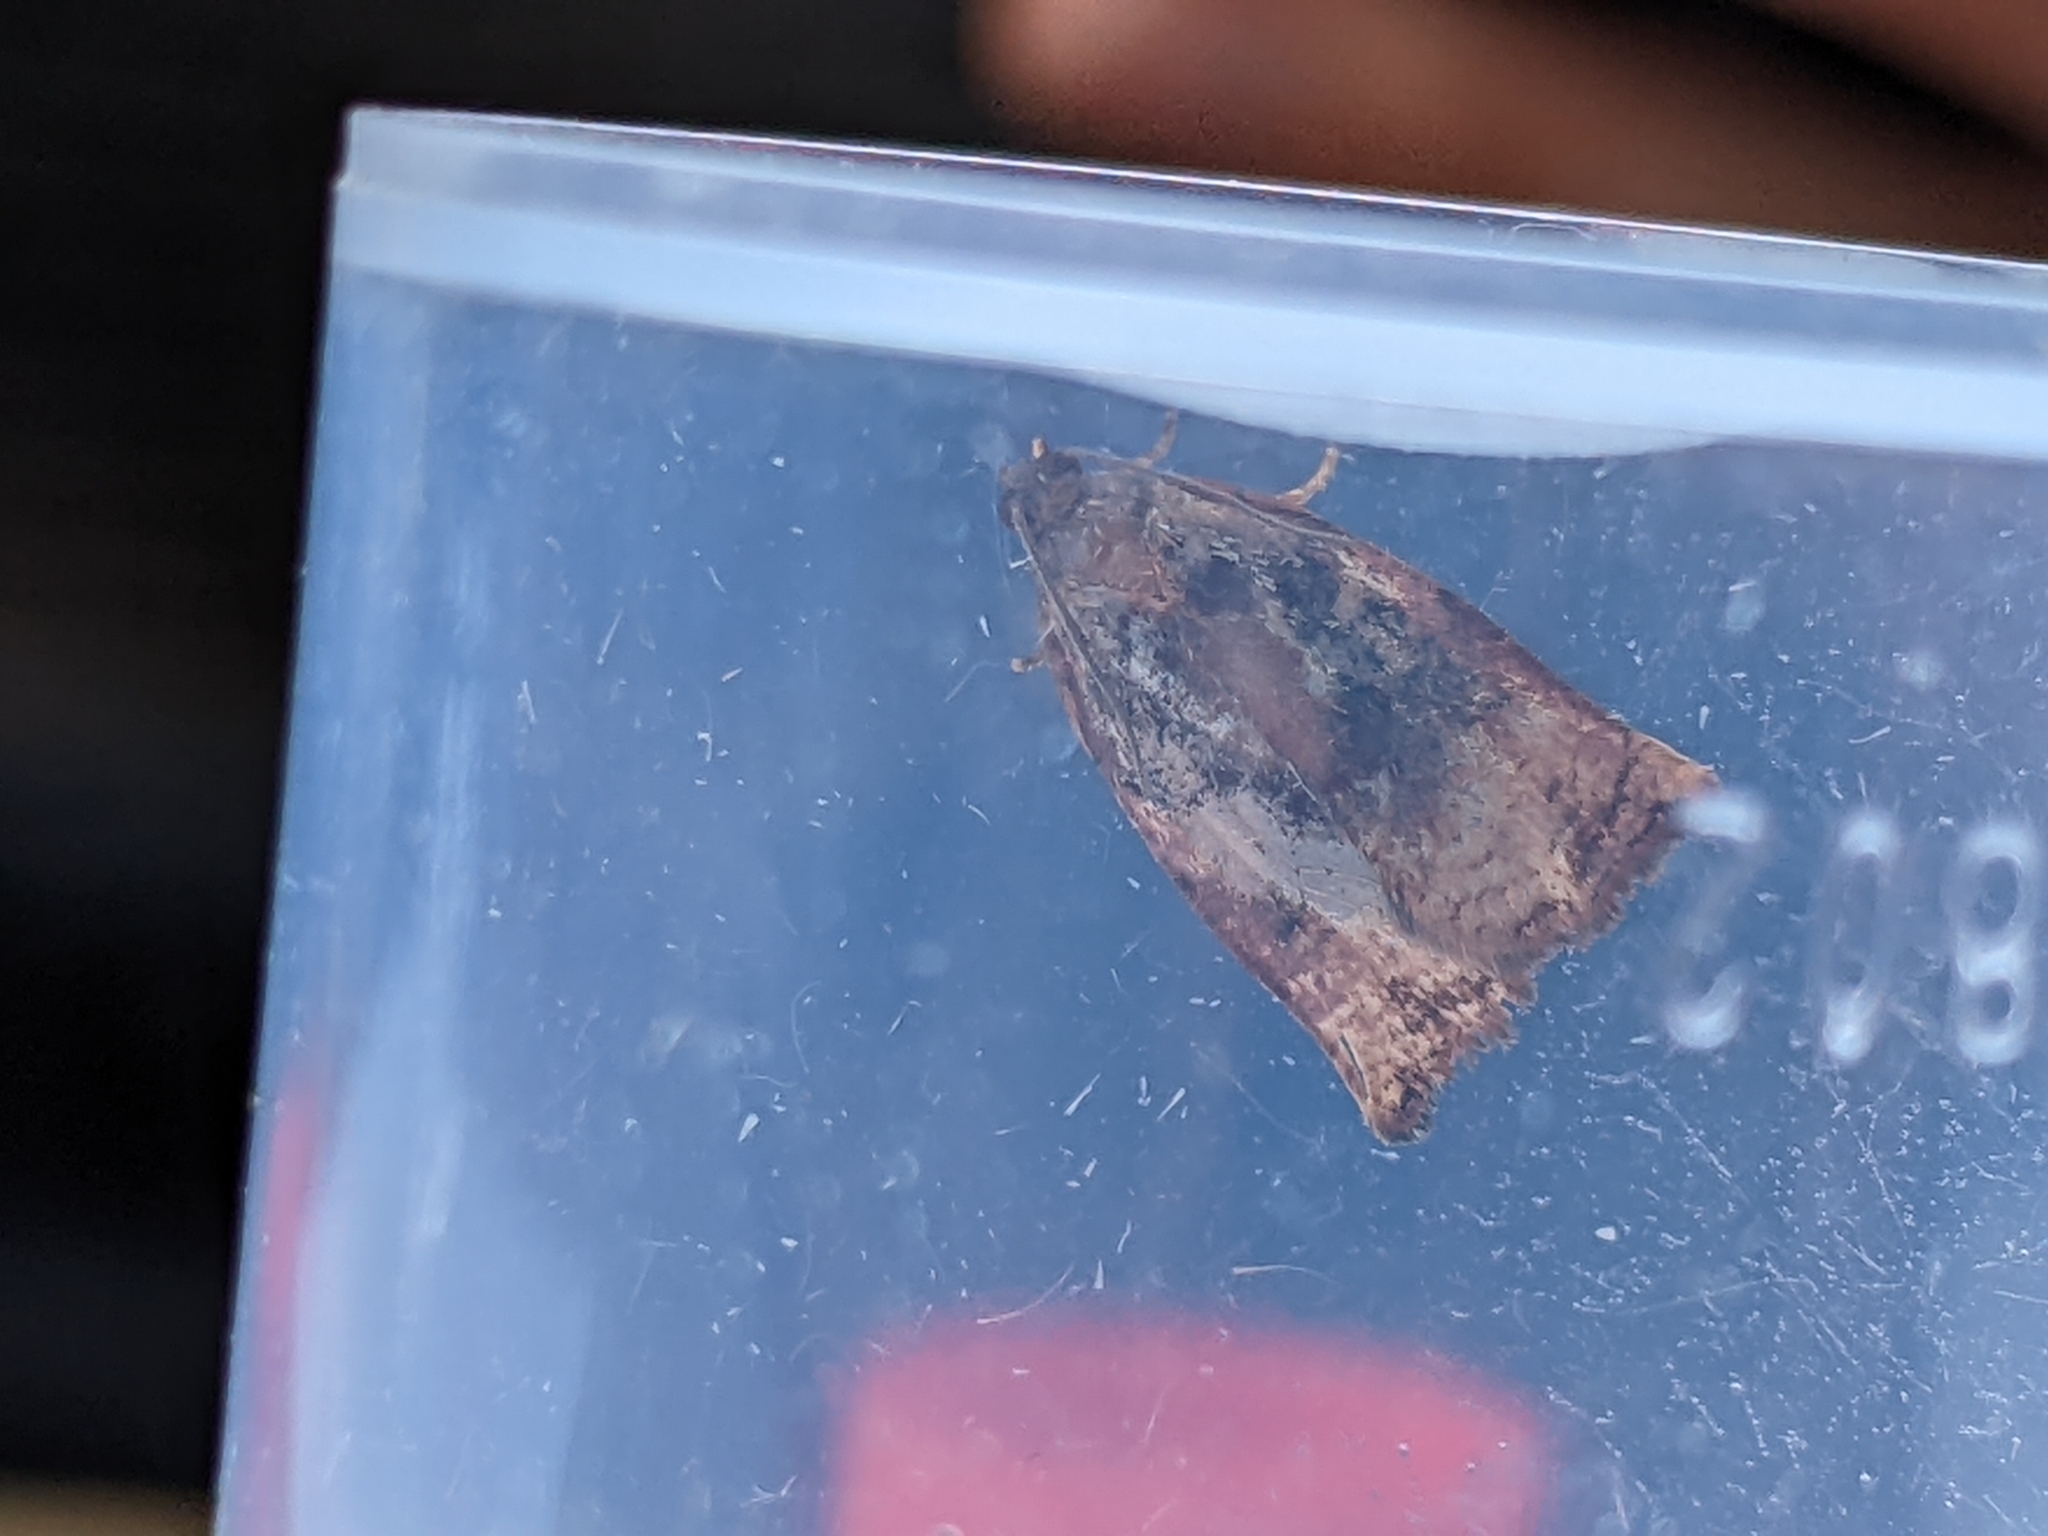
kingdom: Animalia
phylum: Arthropoda
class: Insecta
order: Lepidoptera
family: Tortricidae
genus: Archips
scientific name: Archips podana
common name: Large fruit-tree tortrix
